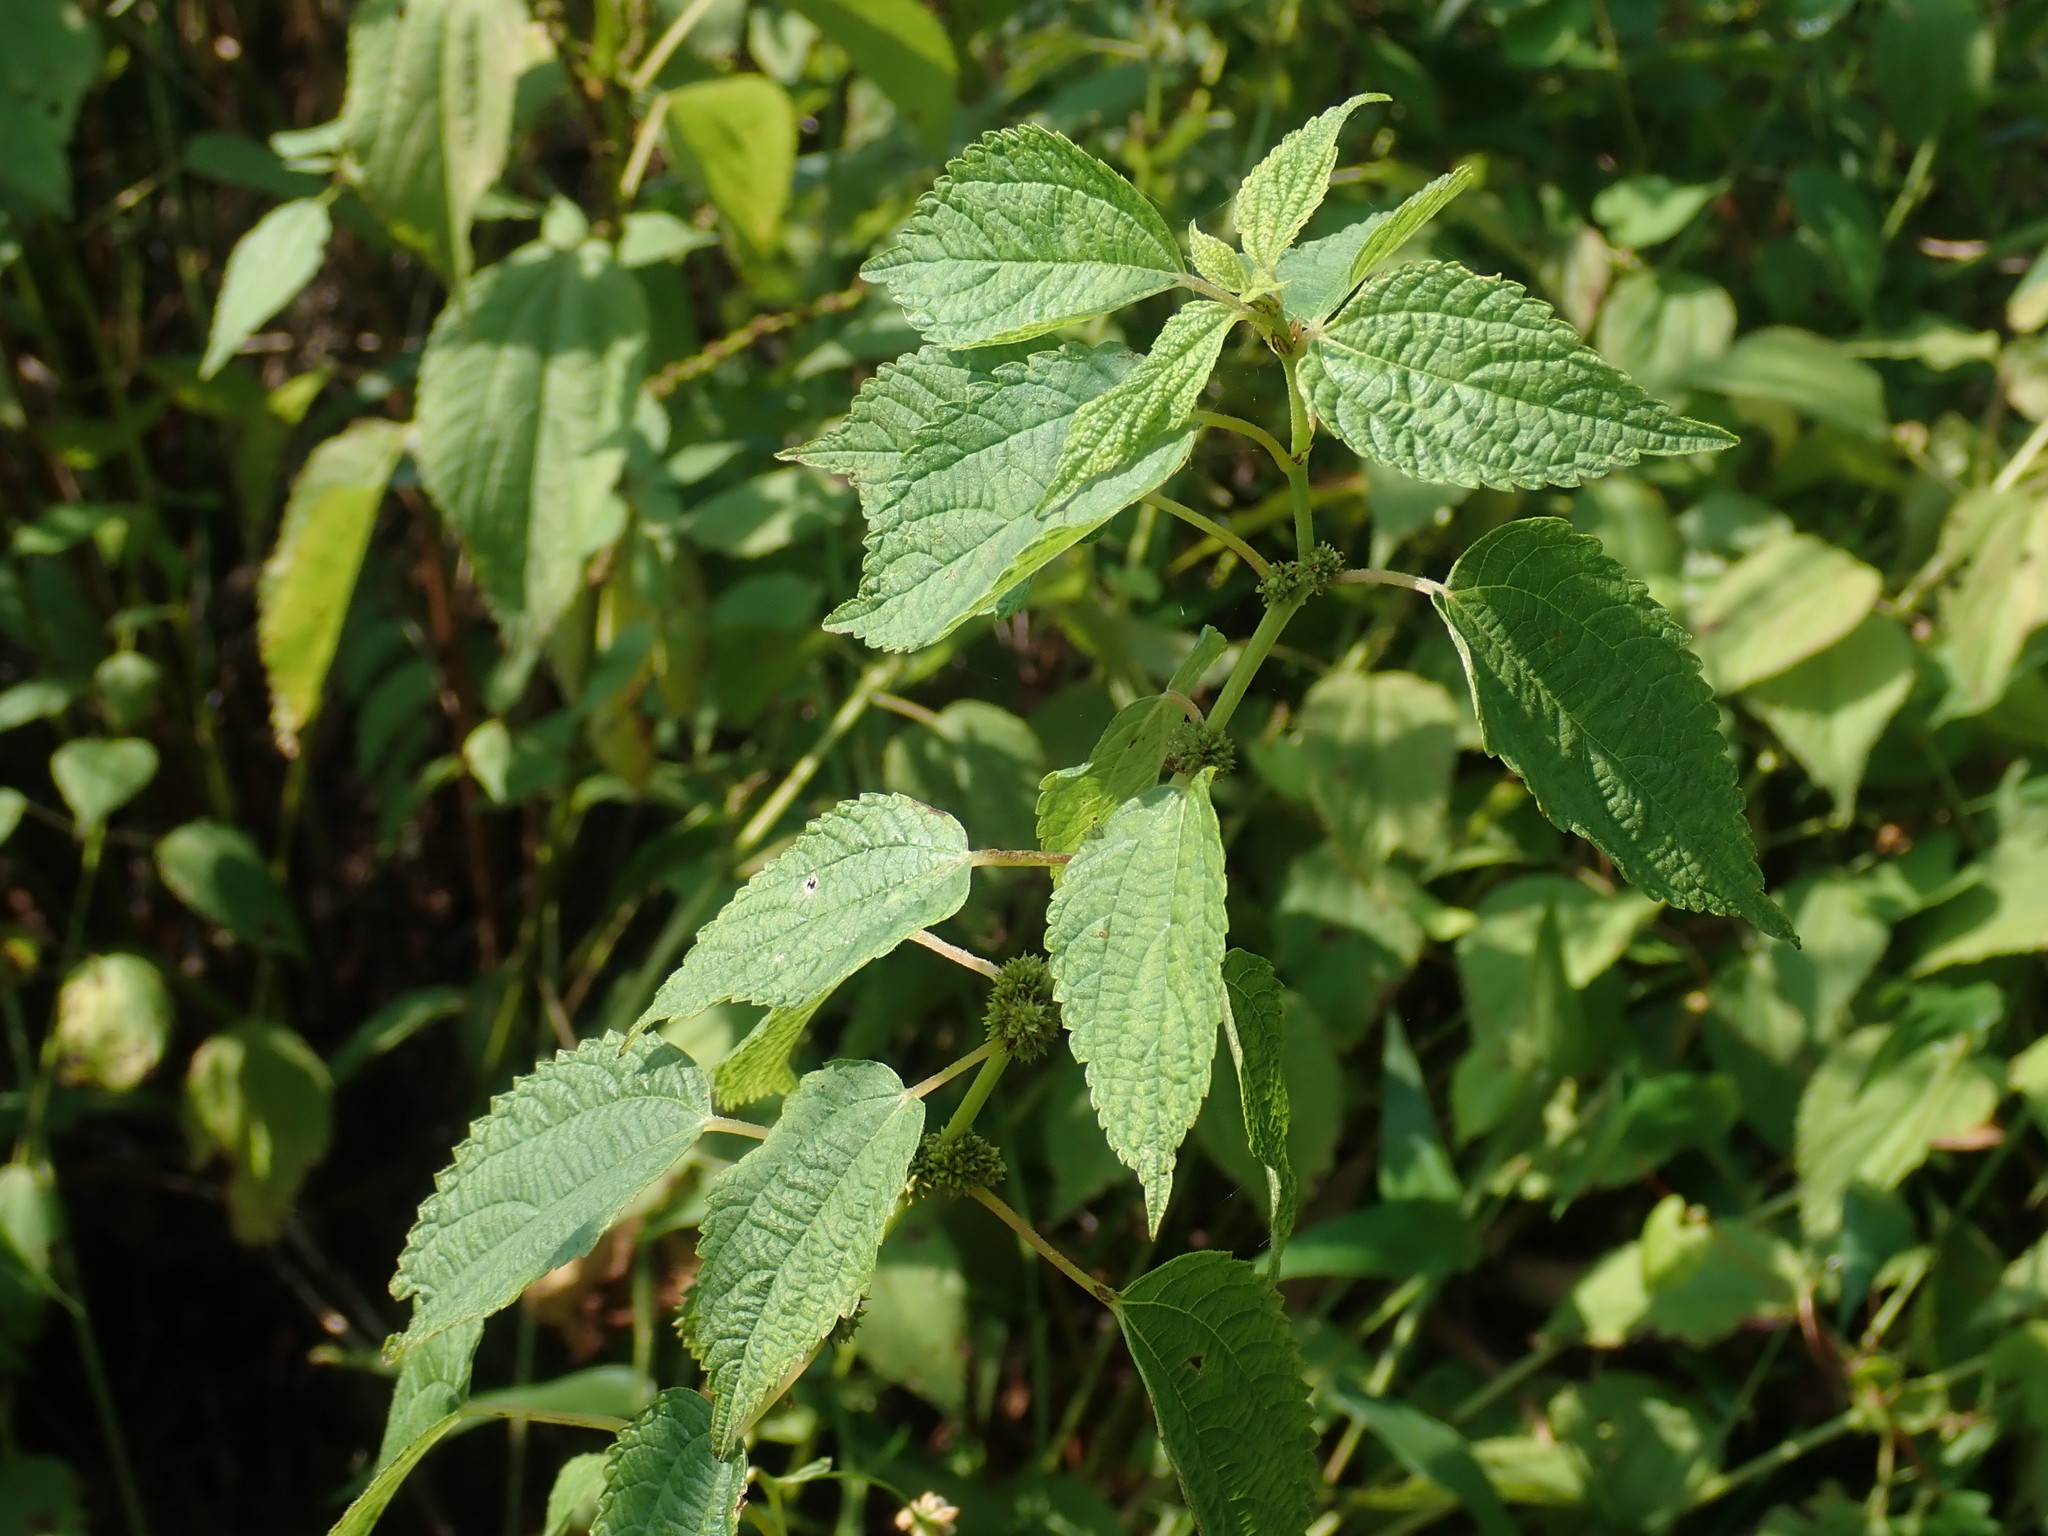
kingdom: Plantae
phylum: Tracheophyta
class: Magnoliopsida
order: Rosales
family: Urticaceae
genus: Boehmeria
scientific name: Boehmeria cylindrica
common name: Bog-hemp
